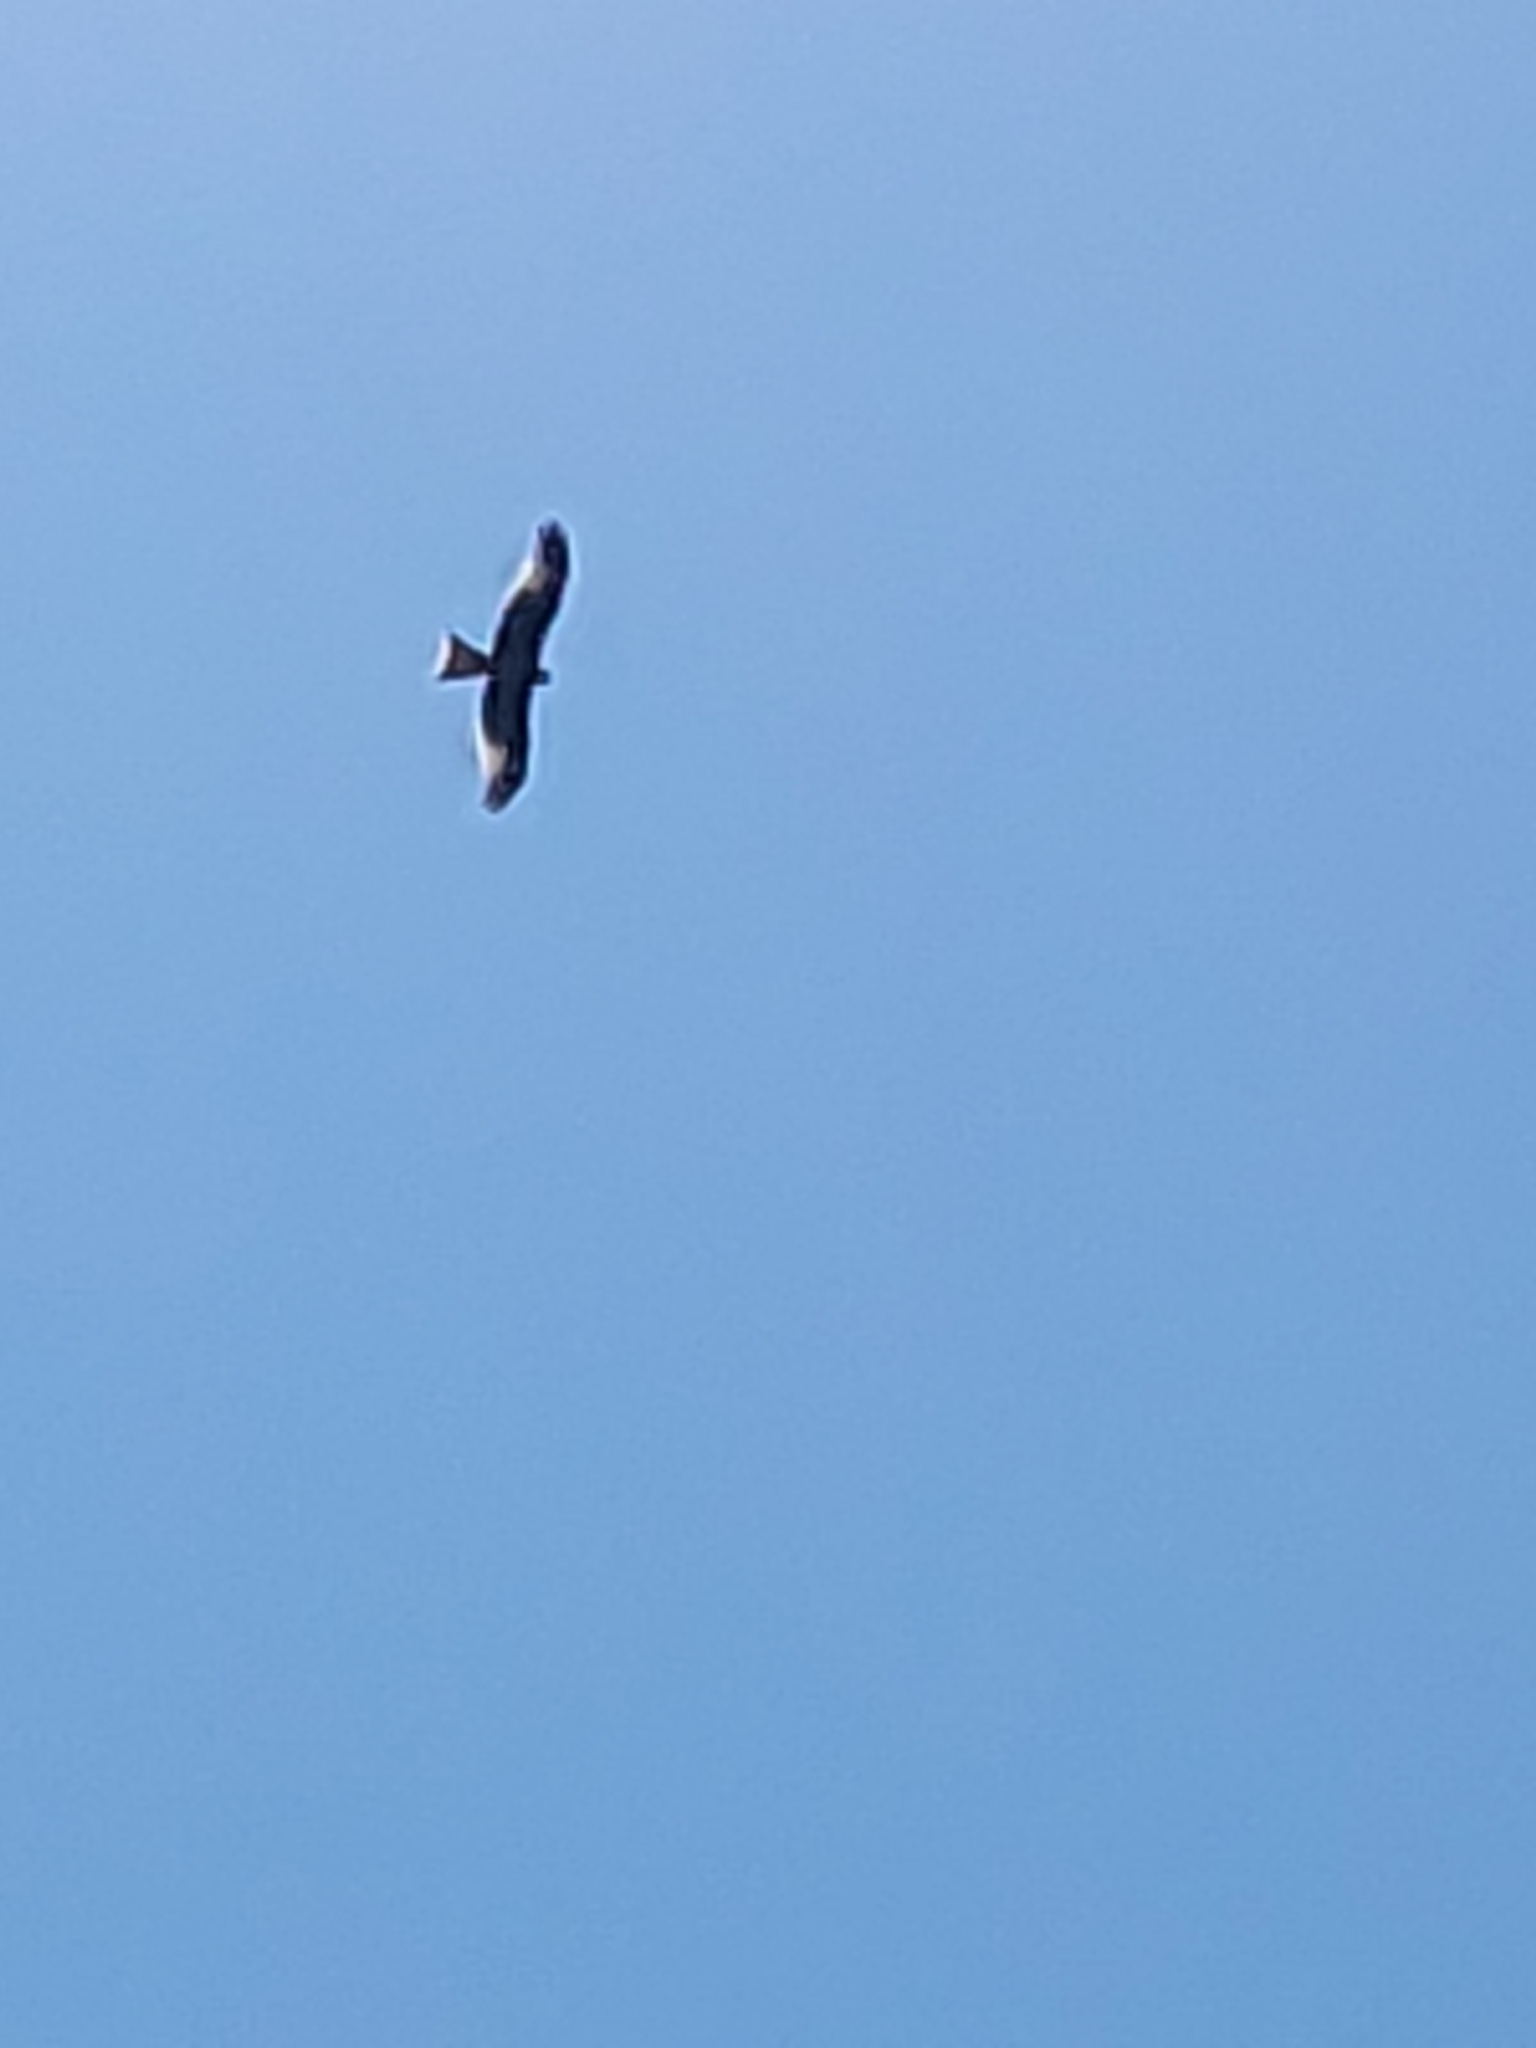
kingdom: Animalia
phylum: Chordata
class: Aves
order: Accipitriformes
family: Accipitridae
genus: Milvus
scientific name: Milvus milvus
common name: Red kite
